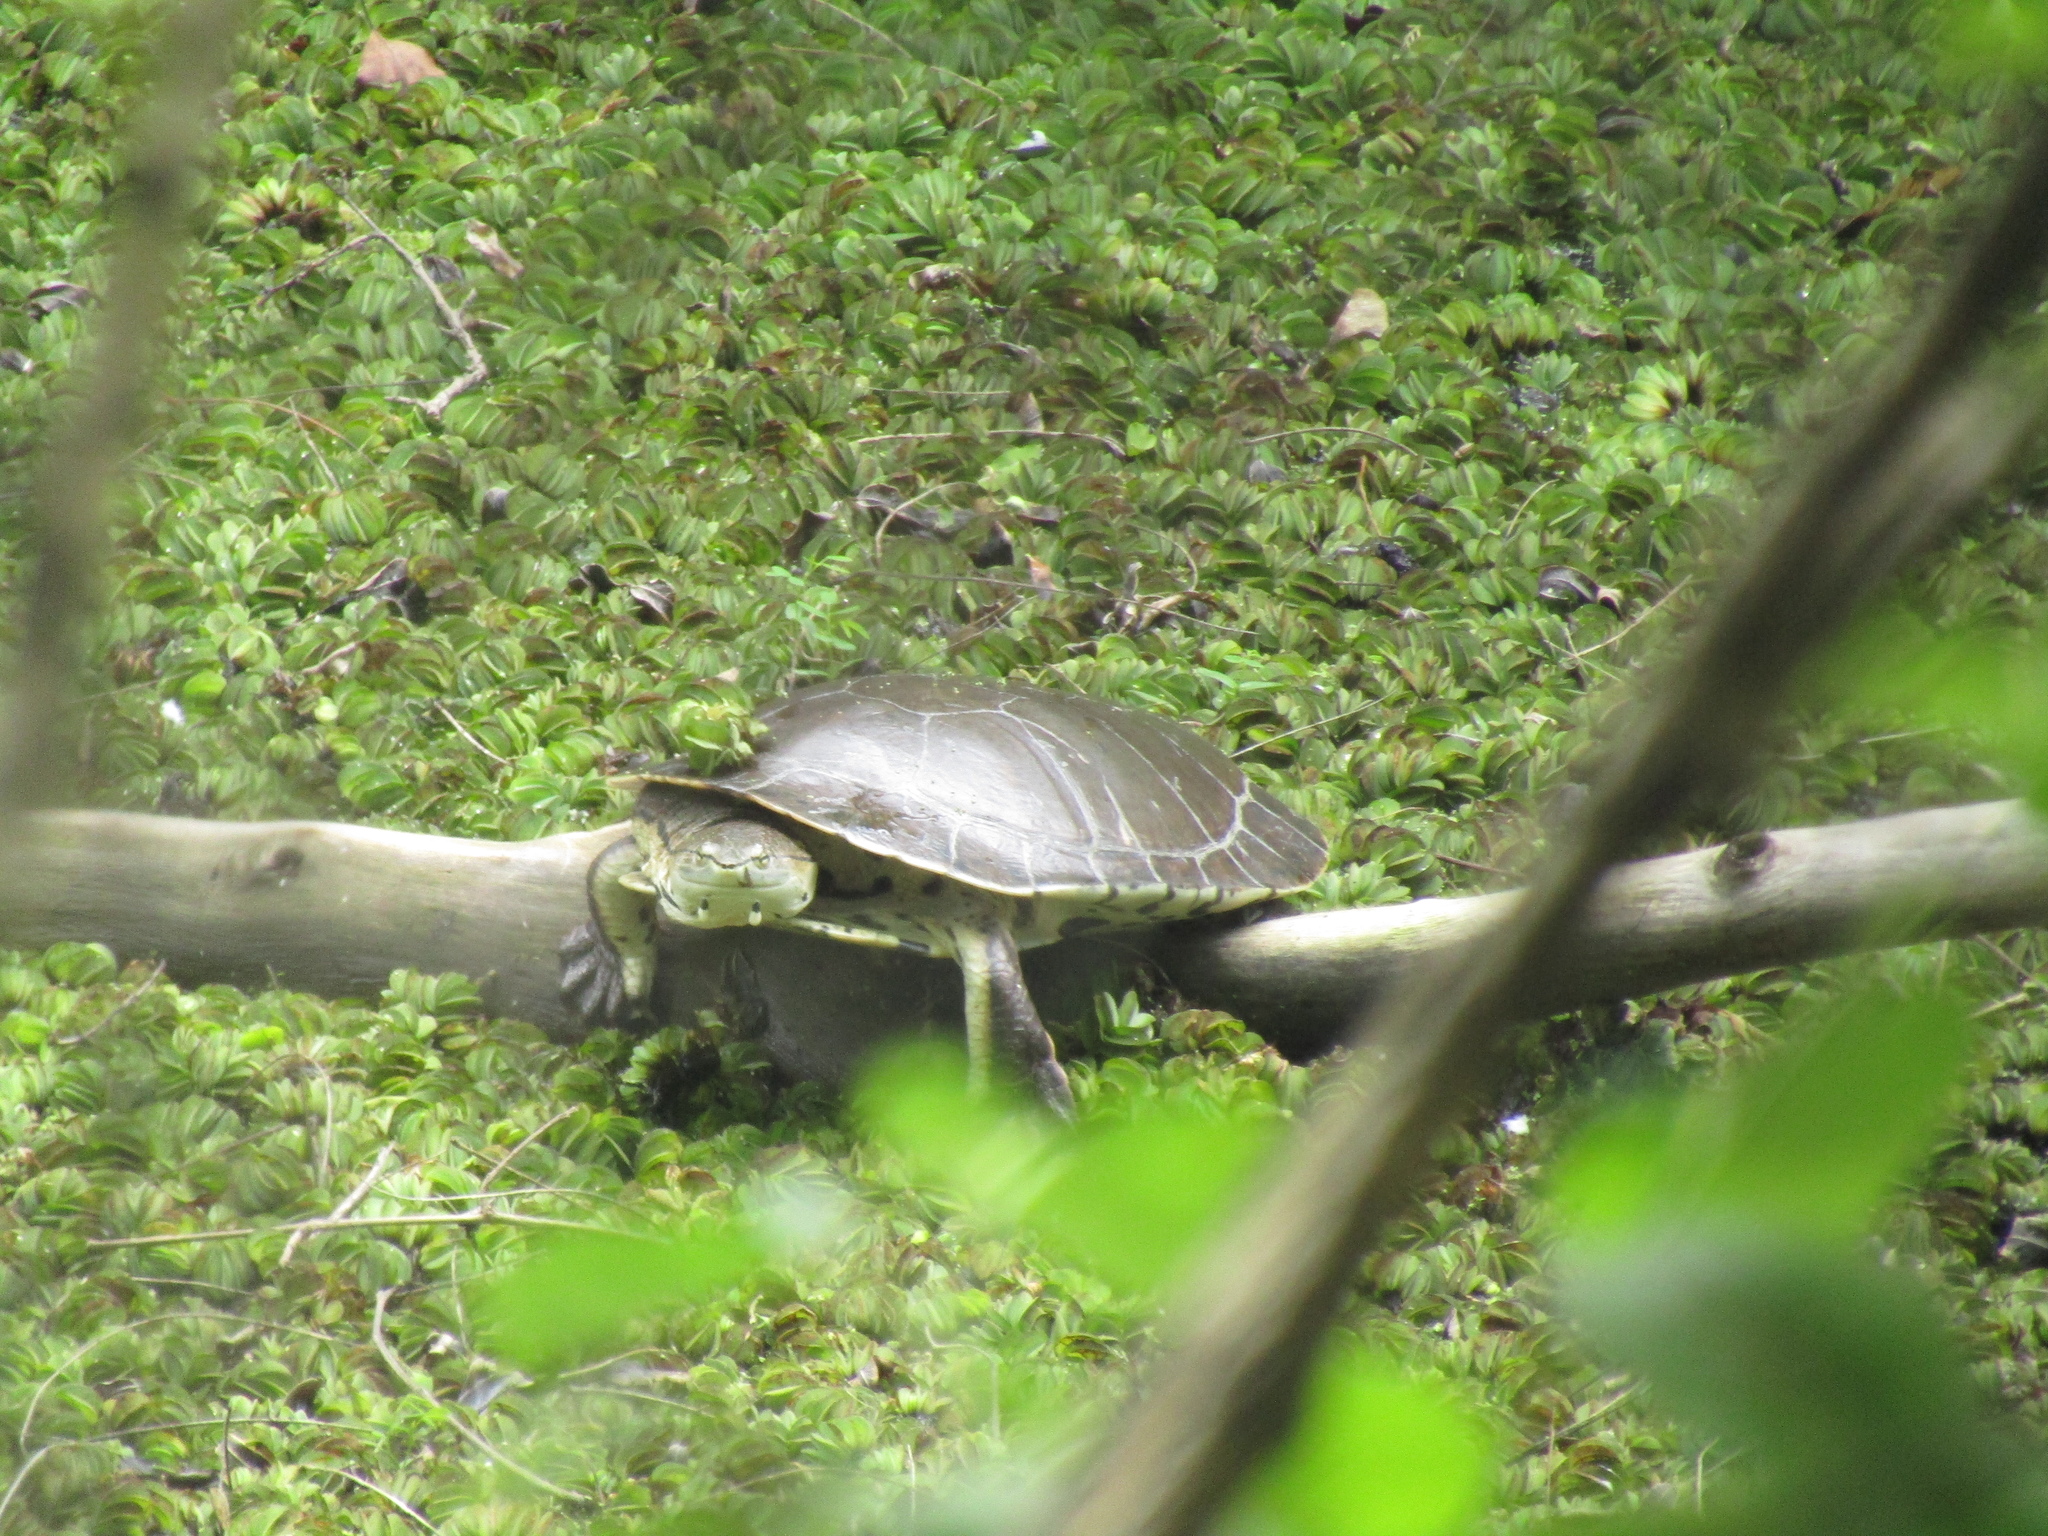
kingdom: Animalia
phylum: Chordata
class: Testudines
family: Chelidae
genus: Phrynops
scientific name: Phrynops hilarii
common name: Side-necked turtle of saint hillaire
